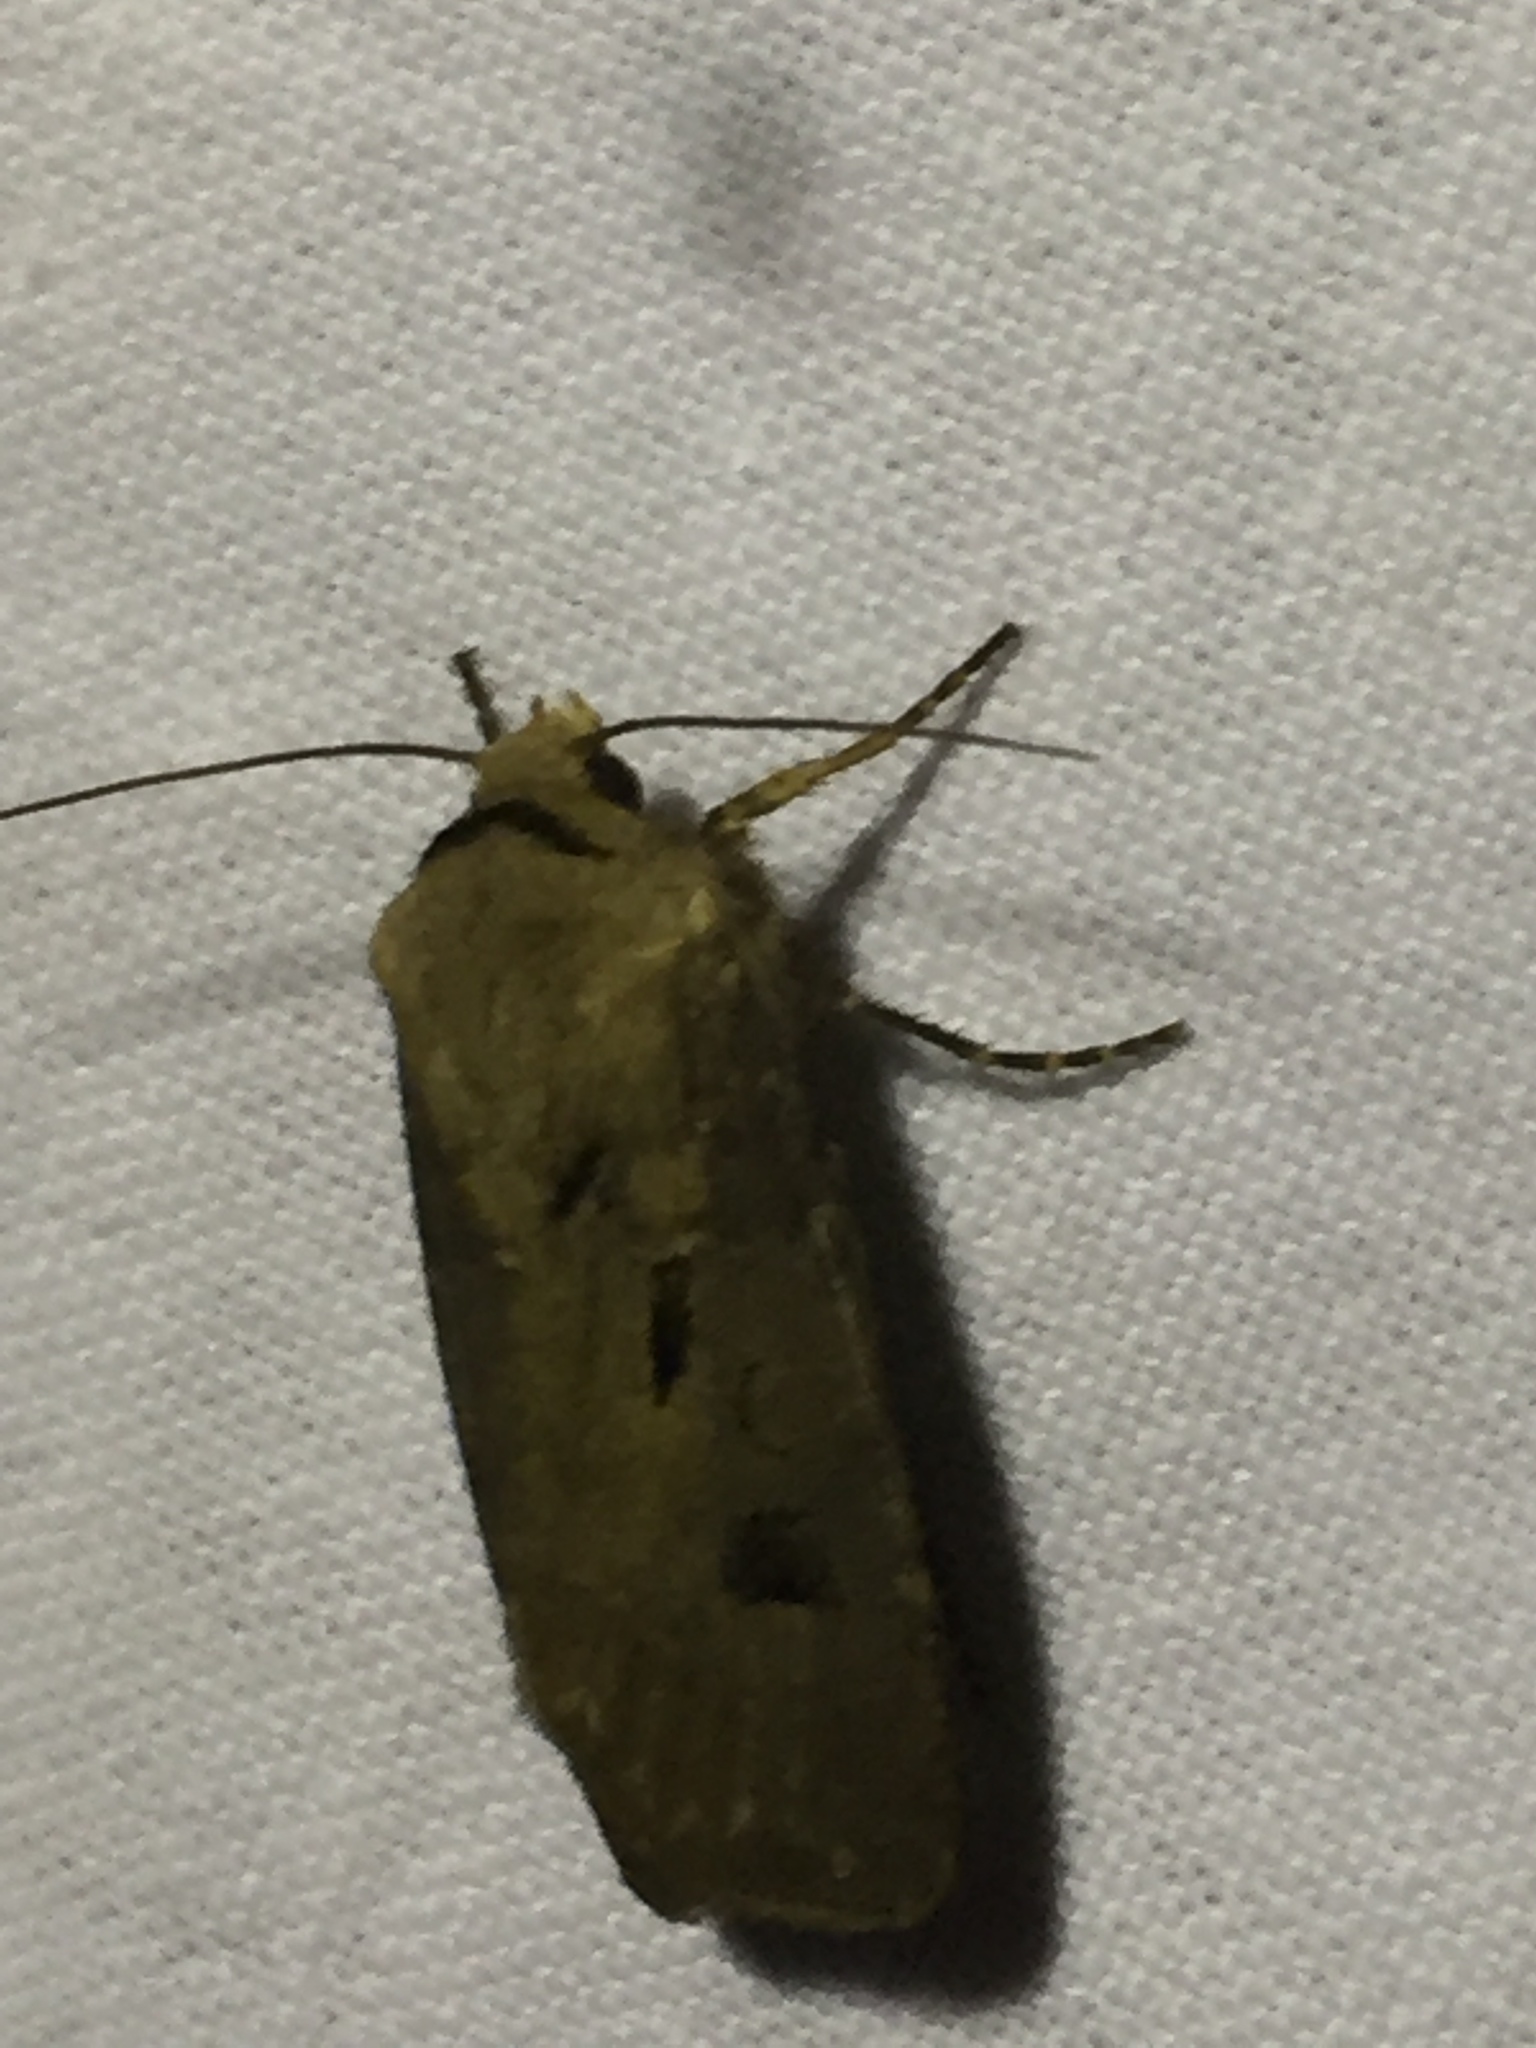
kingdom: Animalia
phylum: Arthropoda
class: Insecta
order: Lepidoptera
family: Noctuidae
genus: Agrotis
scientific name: Agrotis exclamationis
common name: Heart and dart
